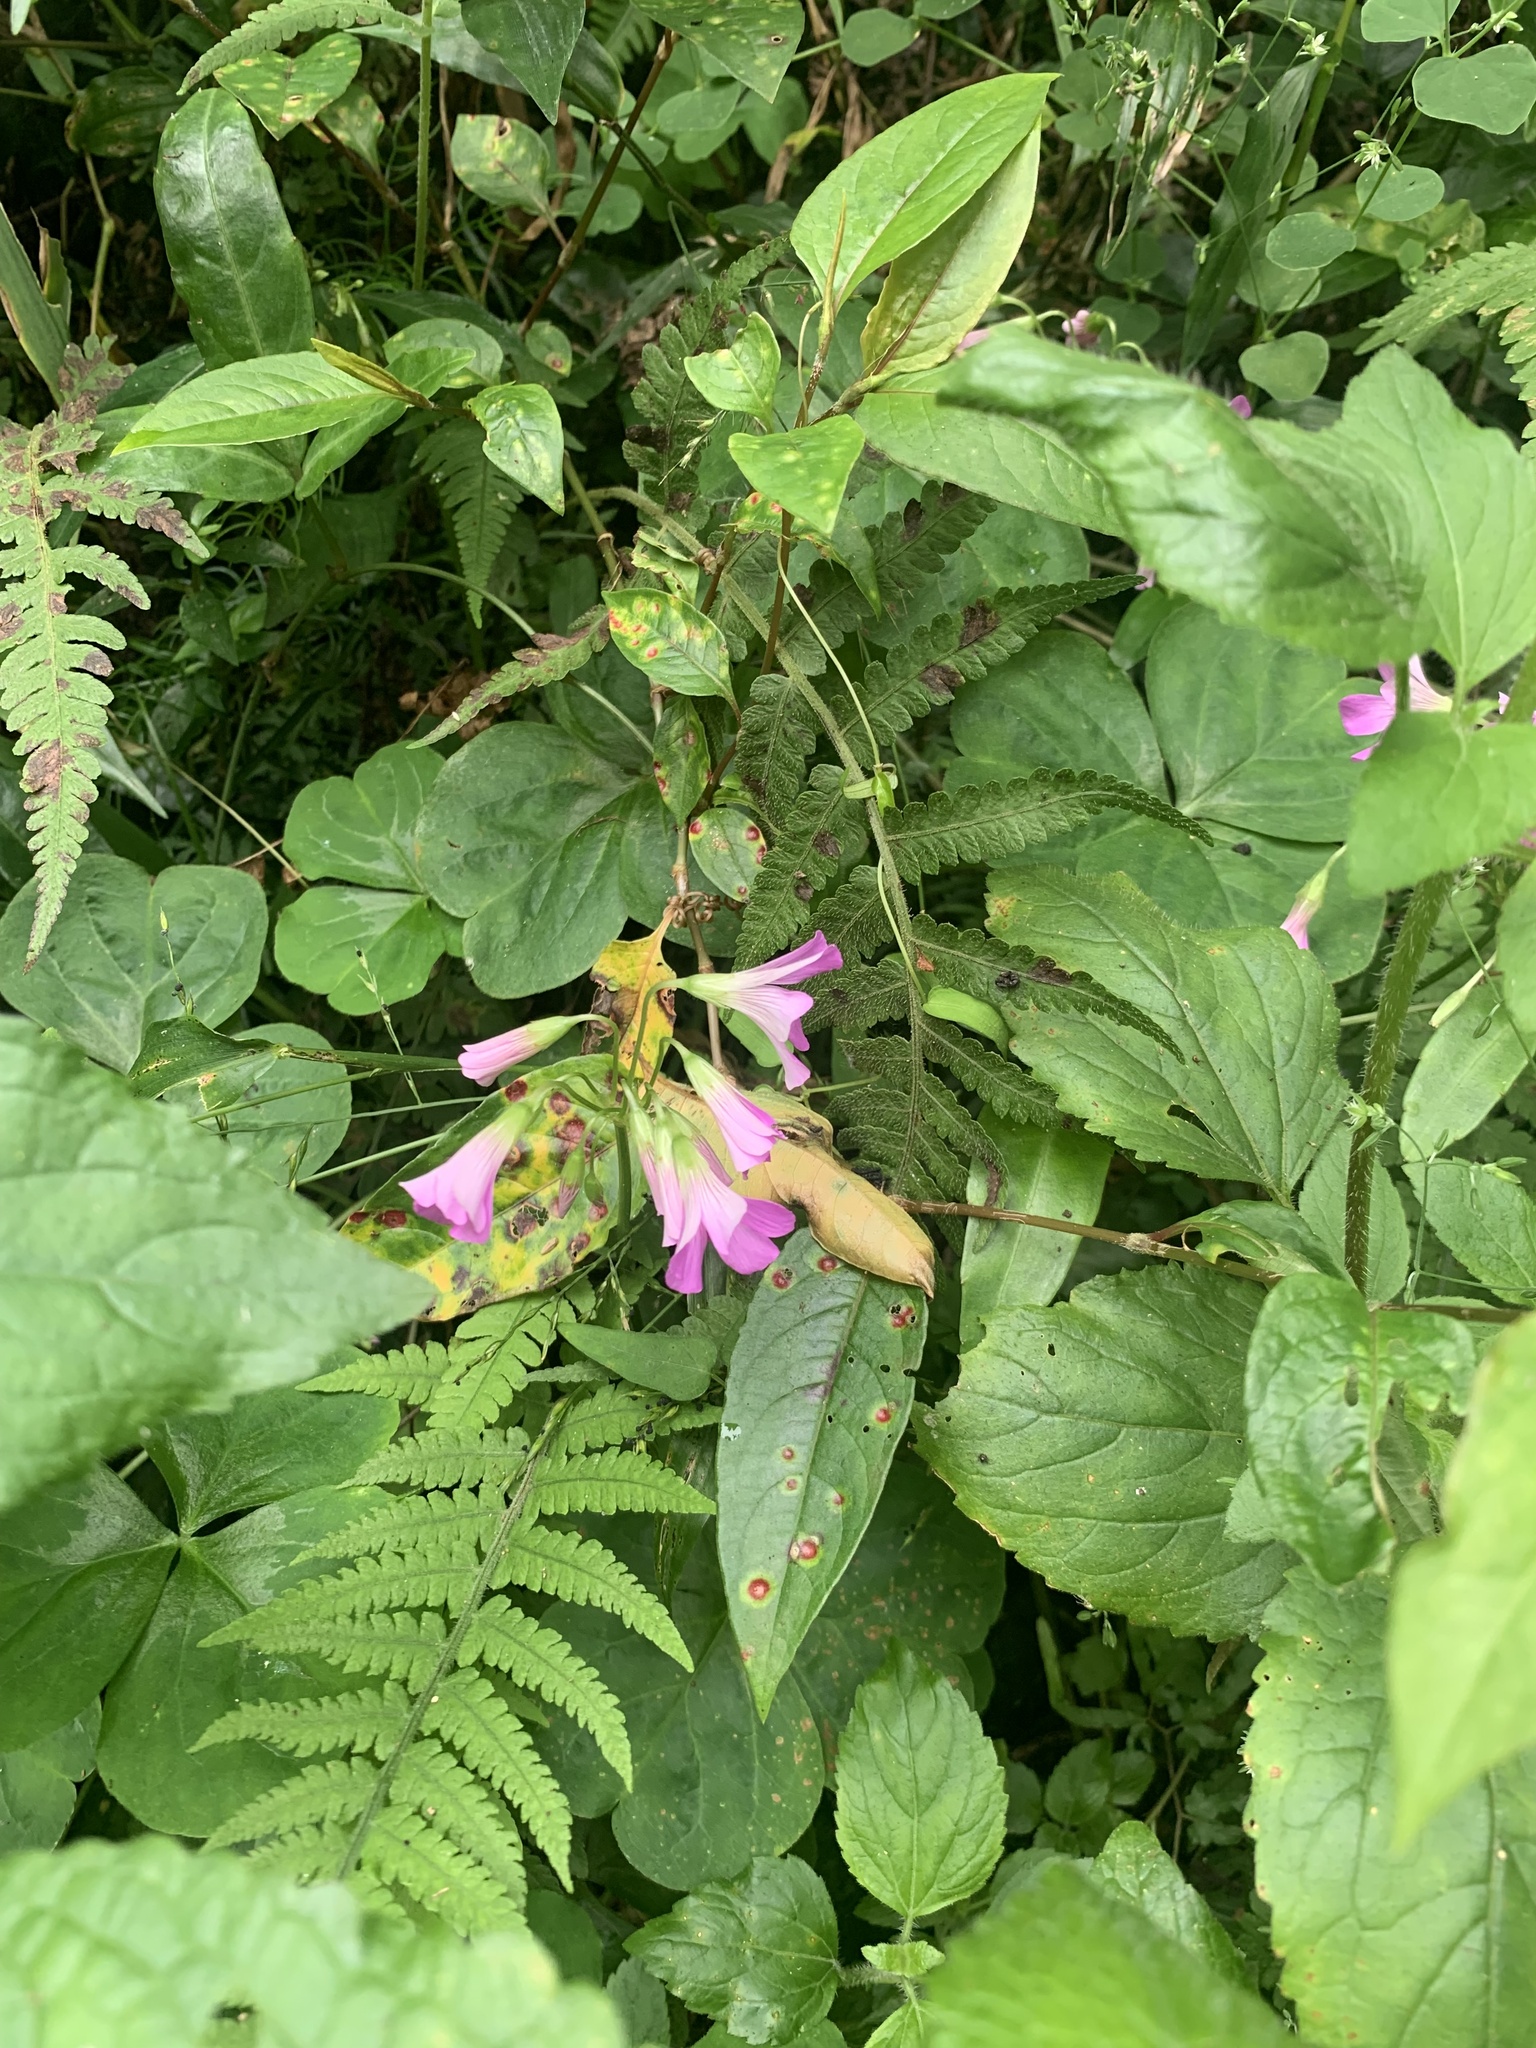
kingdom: Plantae
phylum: Tracheophyta
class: Magnoliopsida
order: Oxalidales
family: Oxalidaceae
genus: Oxalis
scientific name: Oxalis debilis
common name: Large-flowered pink-sorrel
